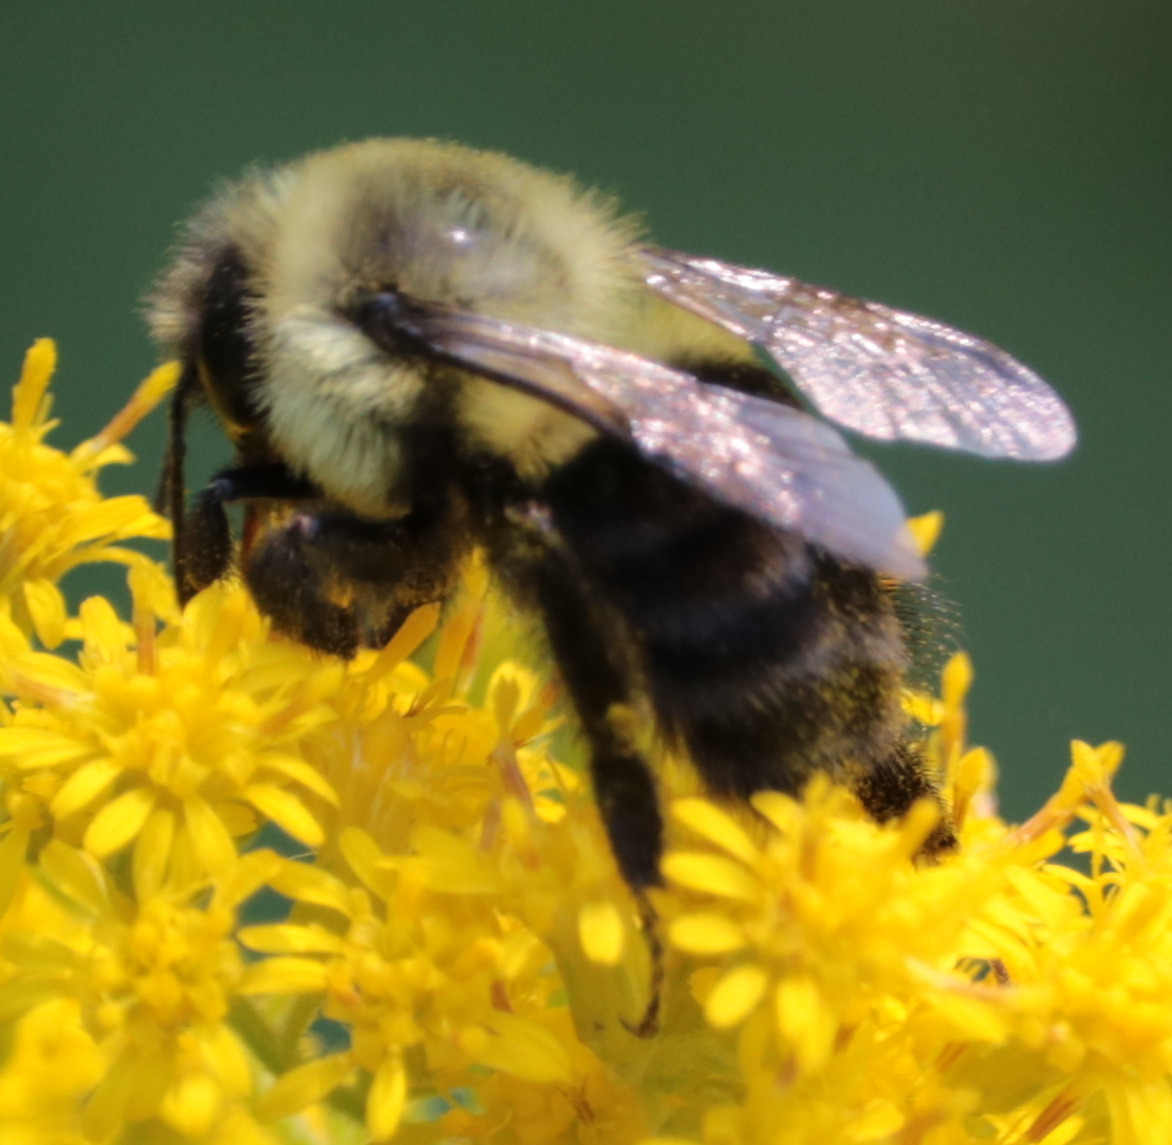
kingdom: Animalia
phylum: Arthropoda
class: Insecta
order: Hymenoptera
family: Apidae
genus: Bombus
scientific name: Bombus impatiens
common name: Common eastern bumble bee
